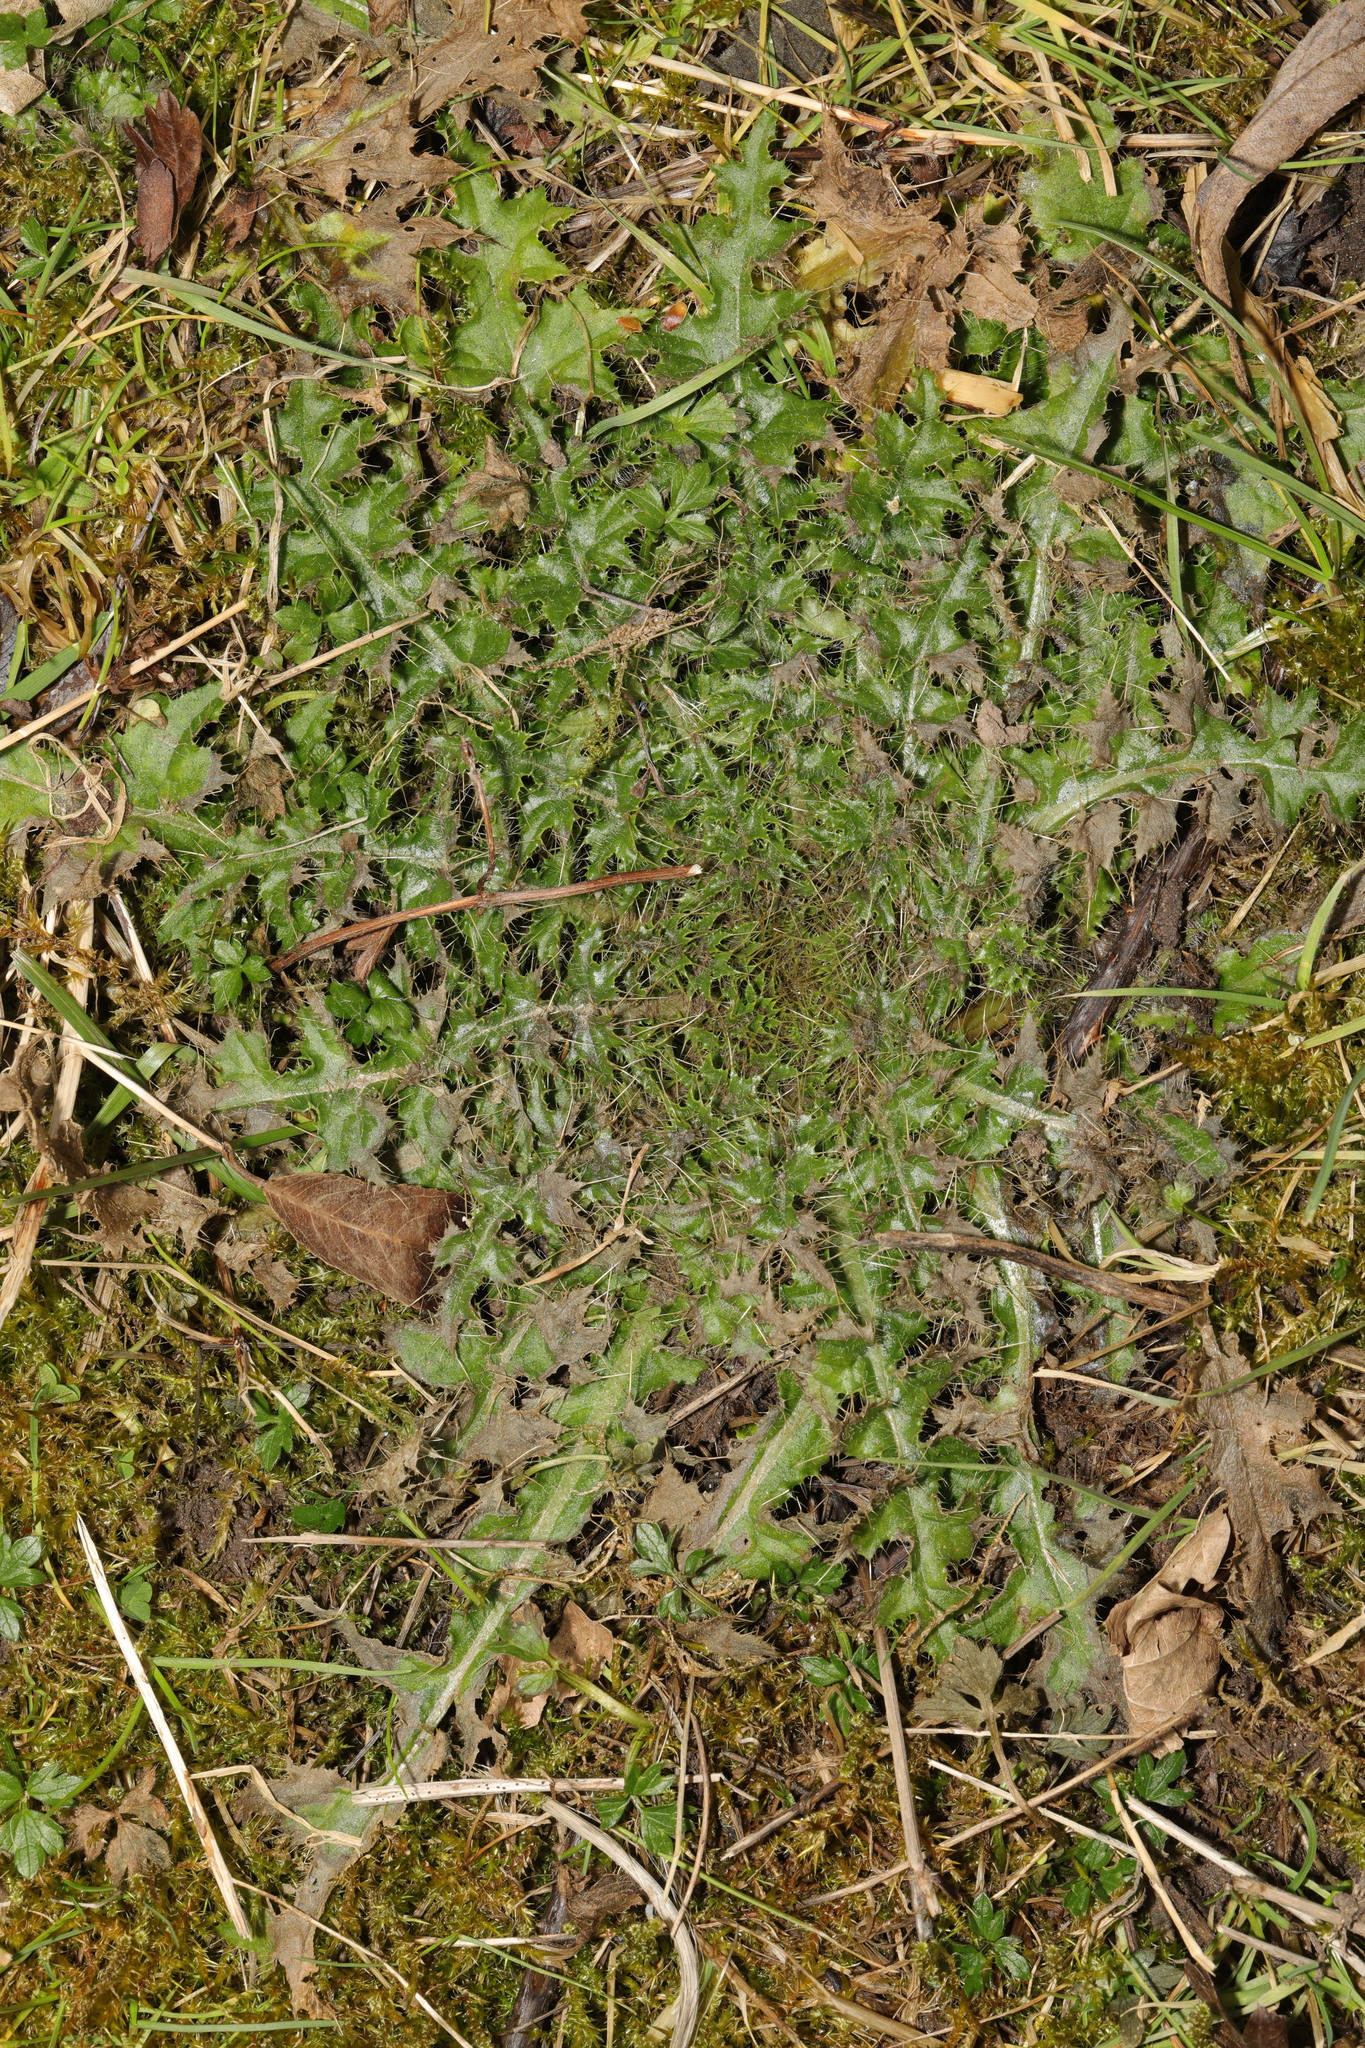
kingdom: Plantae
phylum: Tracheophyta
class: Magnoliopsida
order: Asterales
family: Asteraceae
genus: Cirsium
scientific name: Cirsium palustre
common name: Marsh thistle
